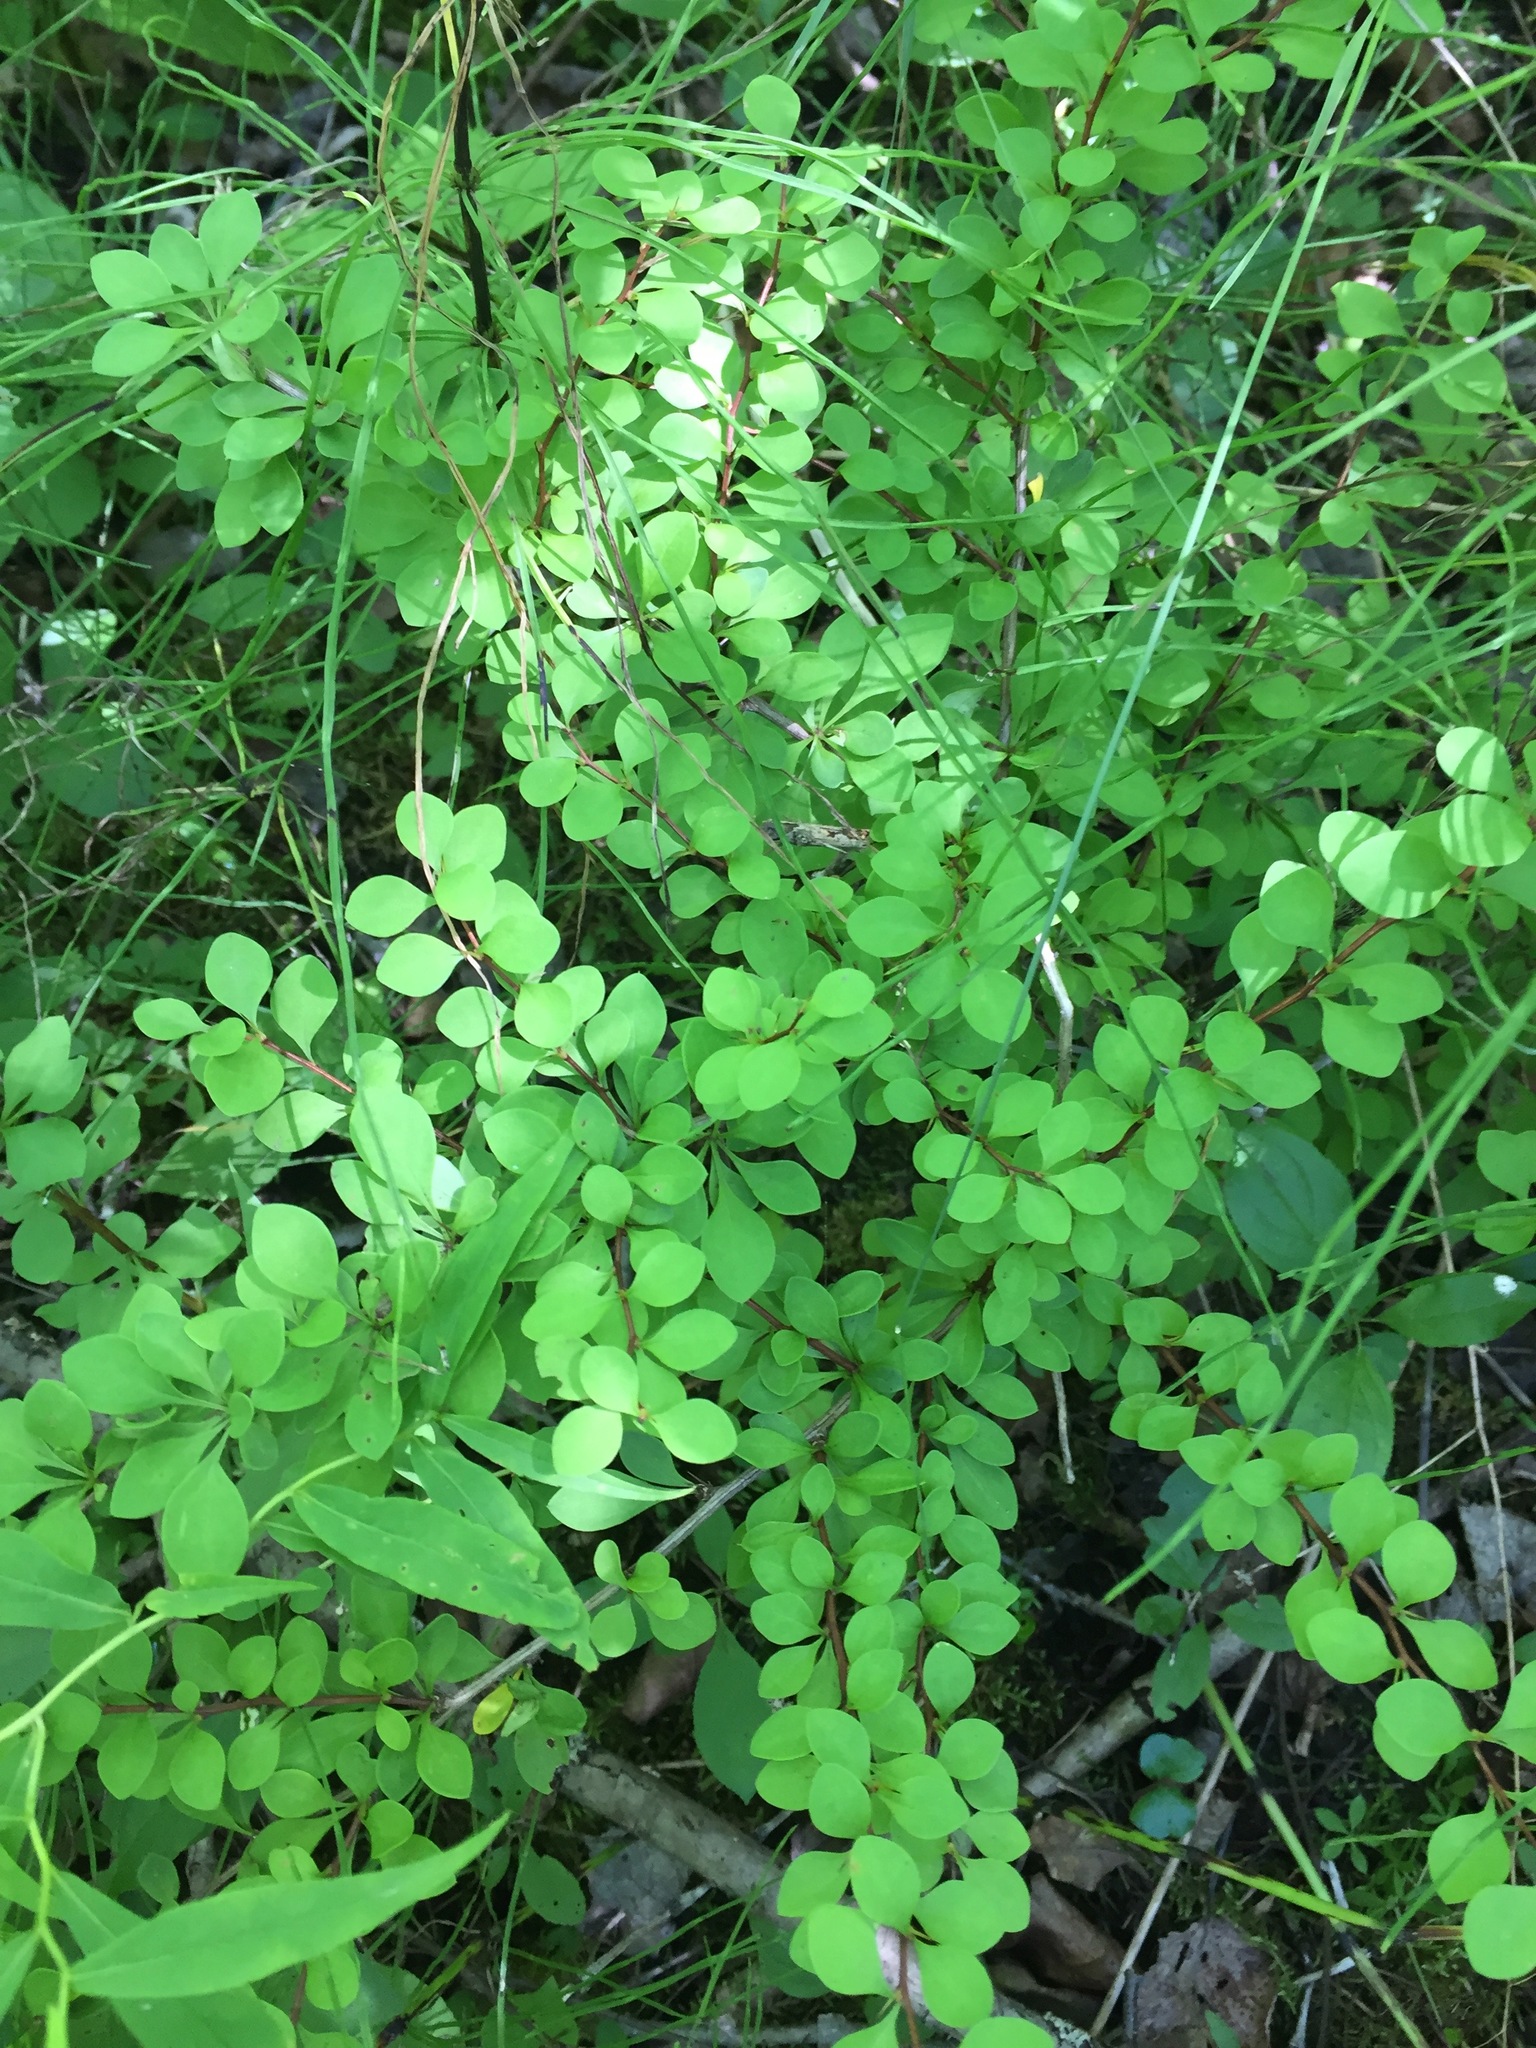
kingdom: Plantae
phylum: Tracheophyta
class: Magnoliopsida
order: Ranunculales
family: Berberidaceae
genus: Berberis
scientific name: Berberis thunbergii
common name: Japanese barberry
